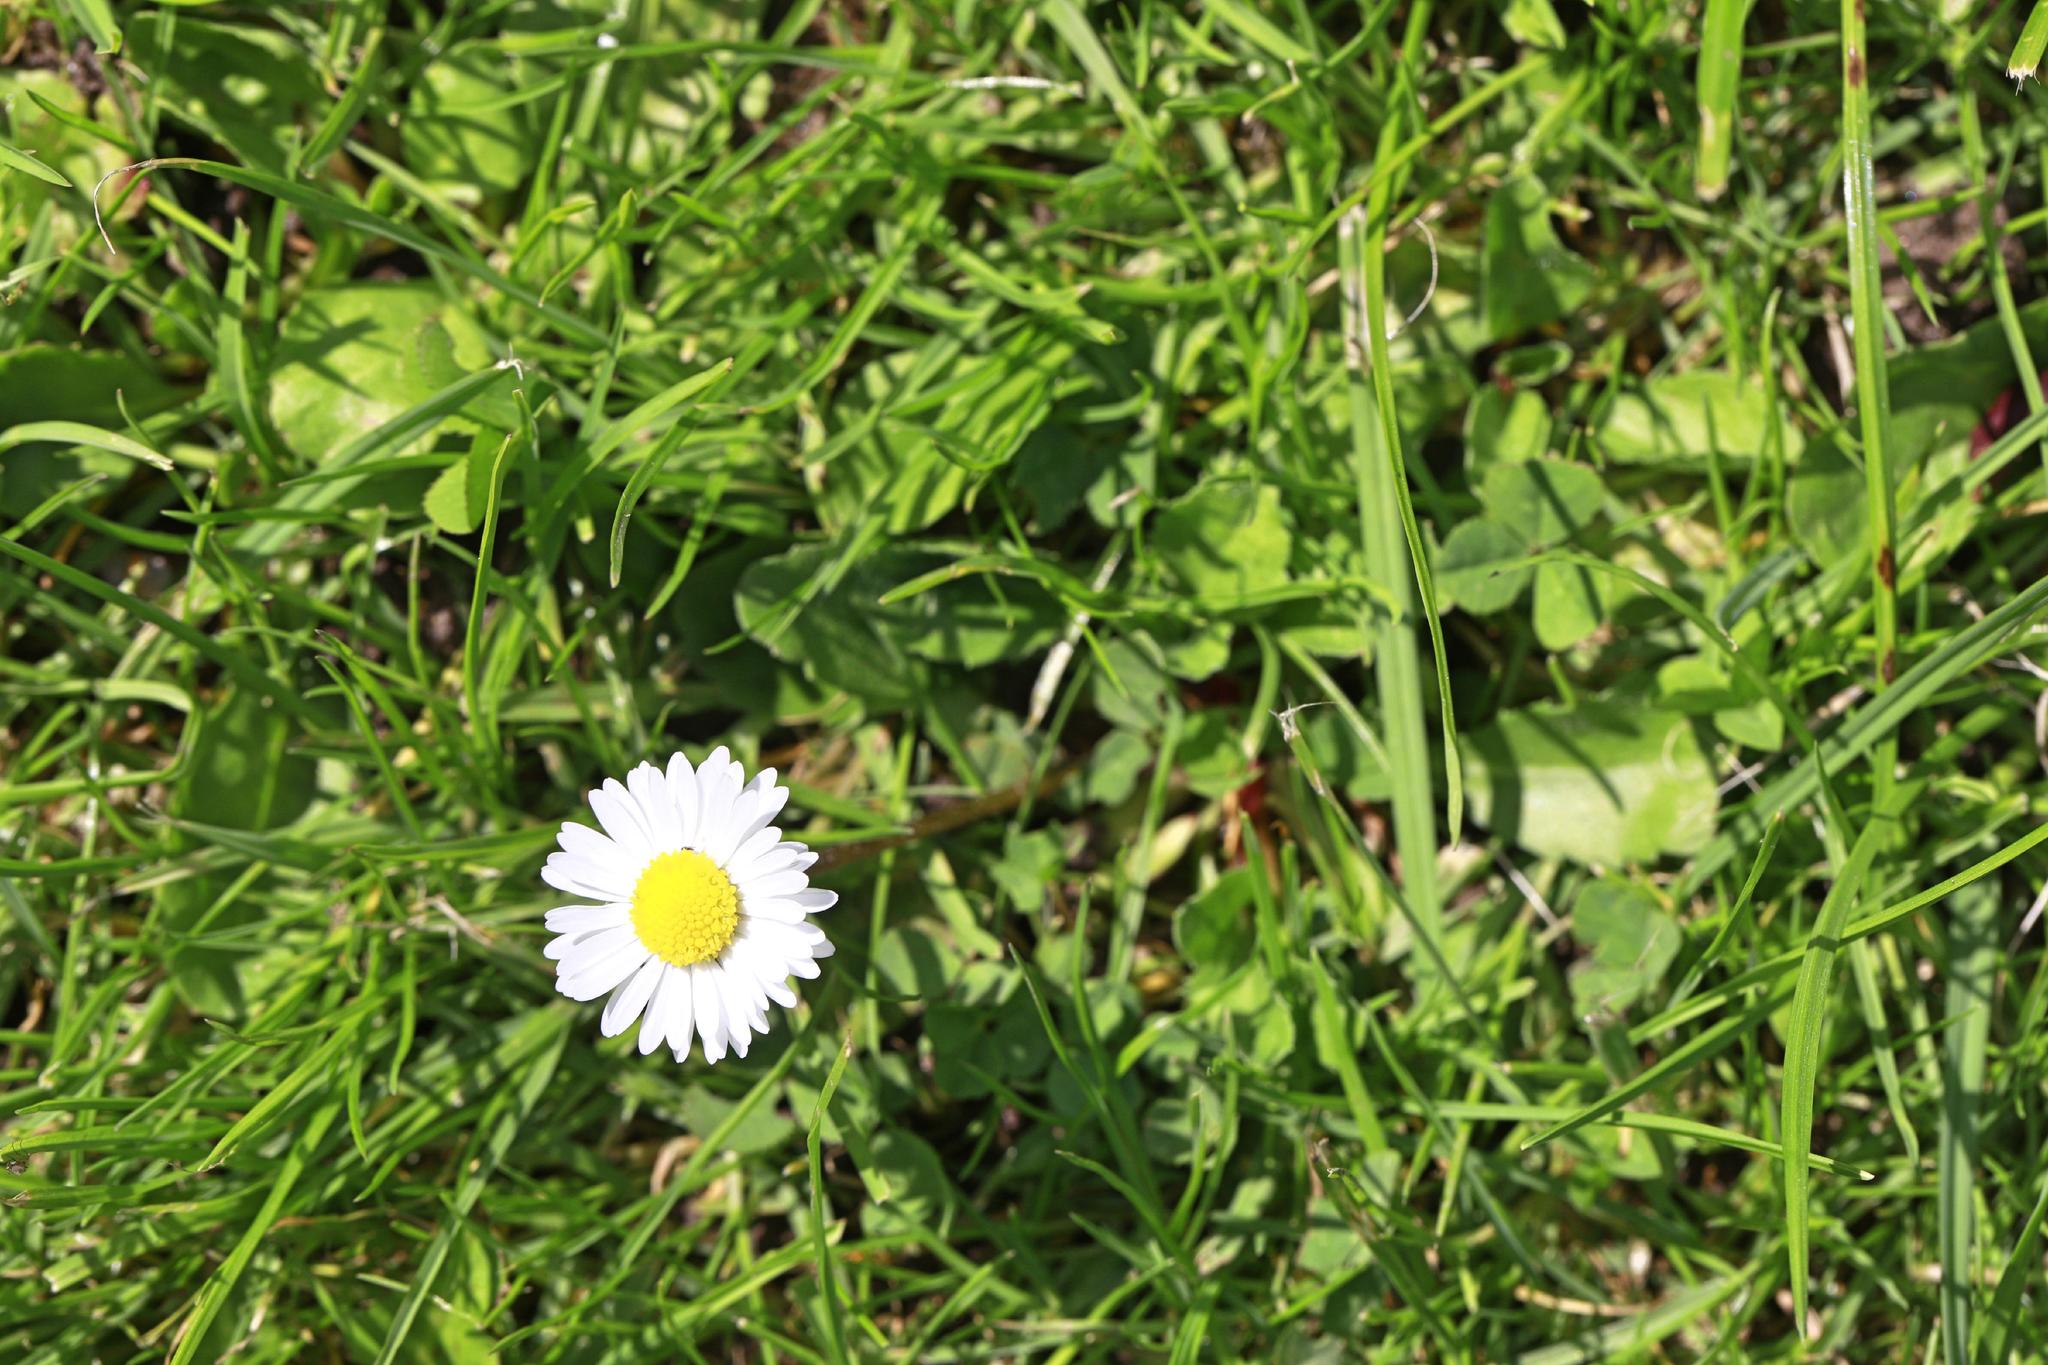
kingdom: Plantae
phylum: Tracheophyta
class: Magnoliopsida
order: Asterales
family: Asteraceae
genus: Bellis
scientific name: Bellis perennis
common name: Lawndaisy
